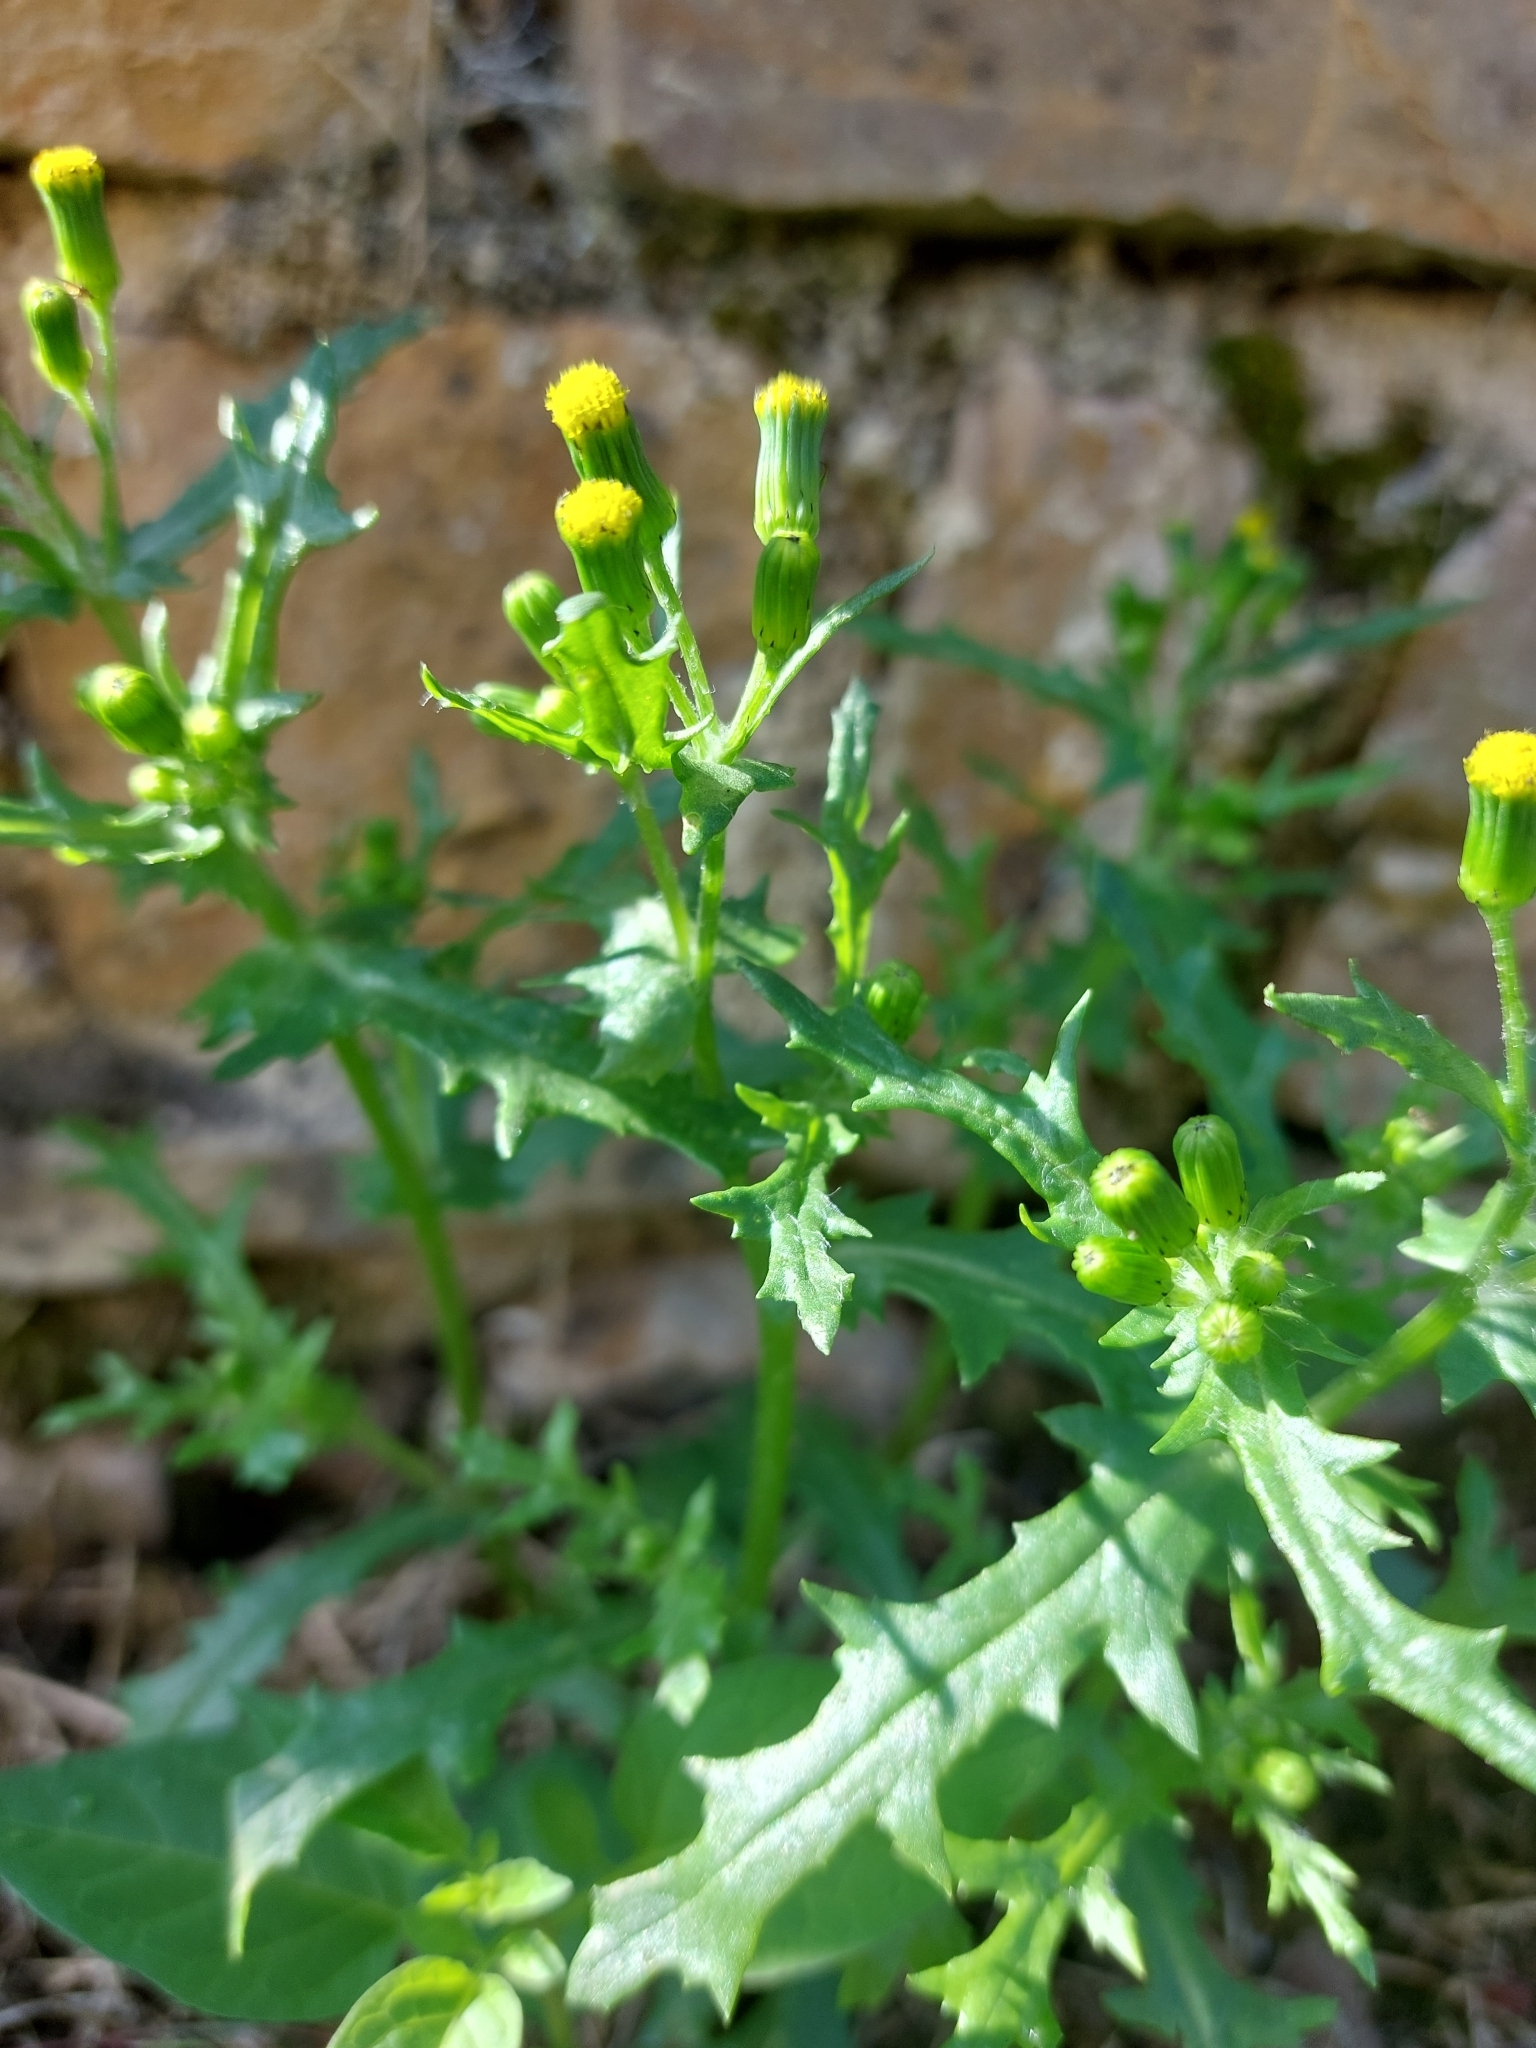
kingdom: Plantae
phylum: Tracheophyta
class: Magnoliopsida
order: Asterales
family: Asteraceae
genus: Senecio
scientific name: Senecio vulgaris
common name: Old-man-in-the-spring
